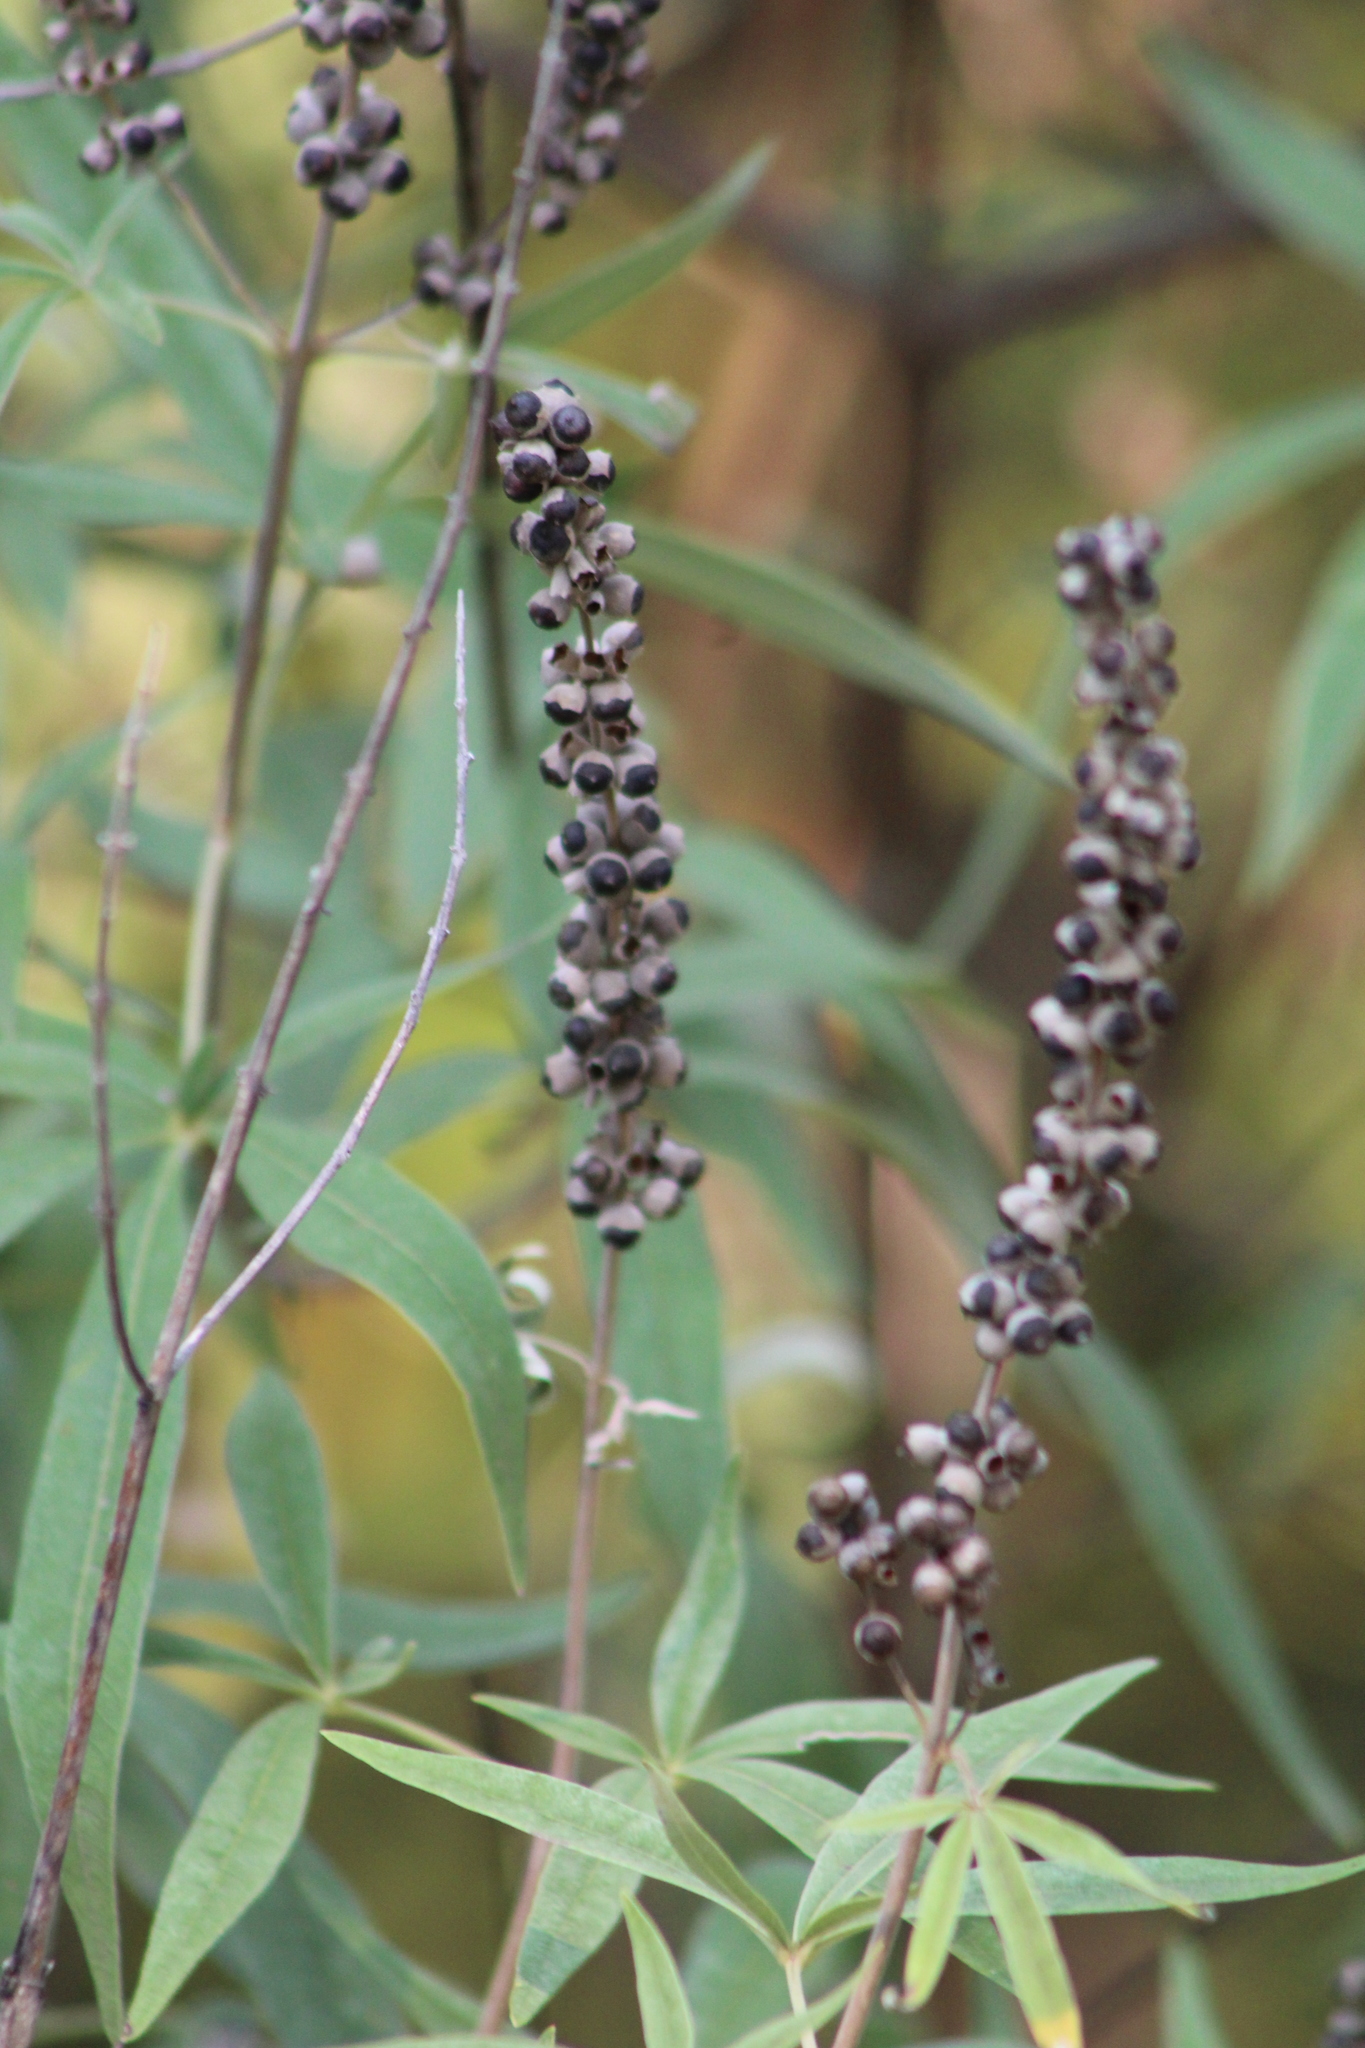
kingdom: Plantae
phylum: Tracheophyta
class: Magnoliopsida
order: Lamiales
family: Lamiaceae
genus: Vitex
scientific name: Vitex agnus-castus
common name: Chasteberry
